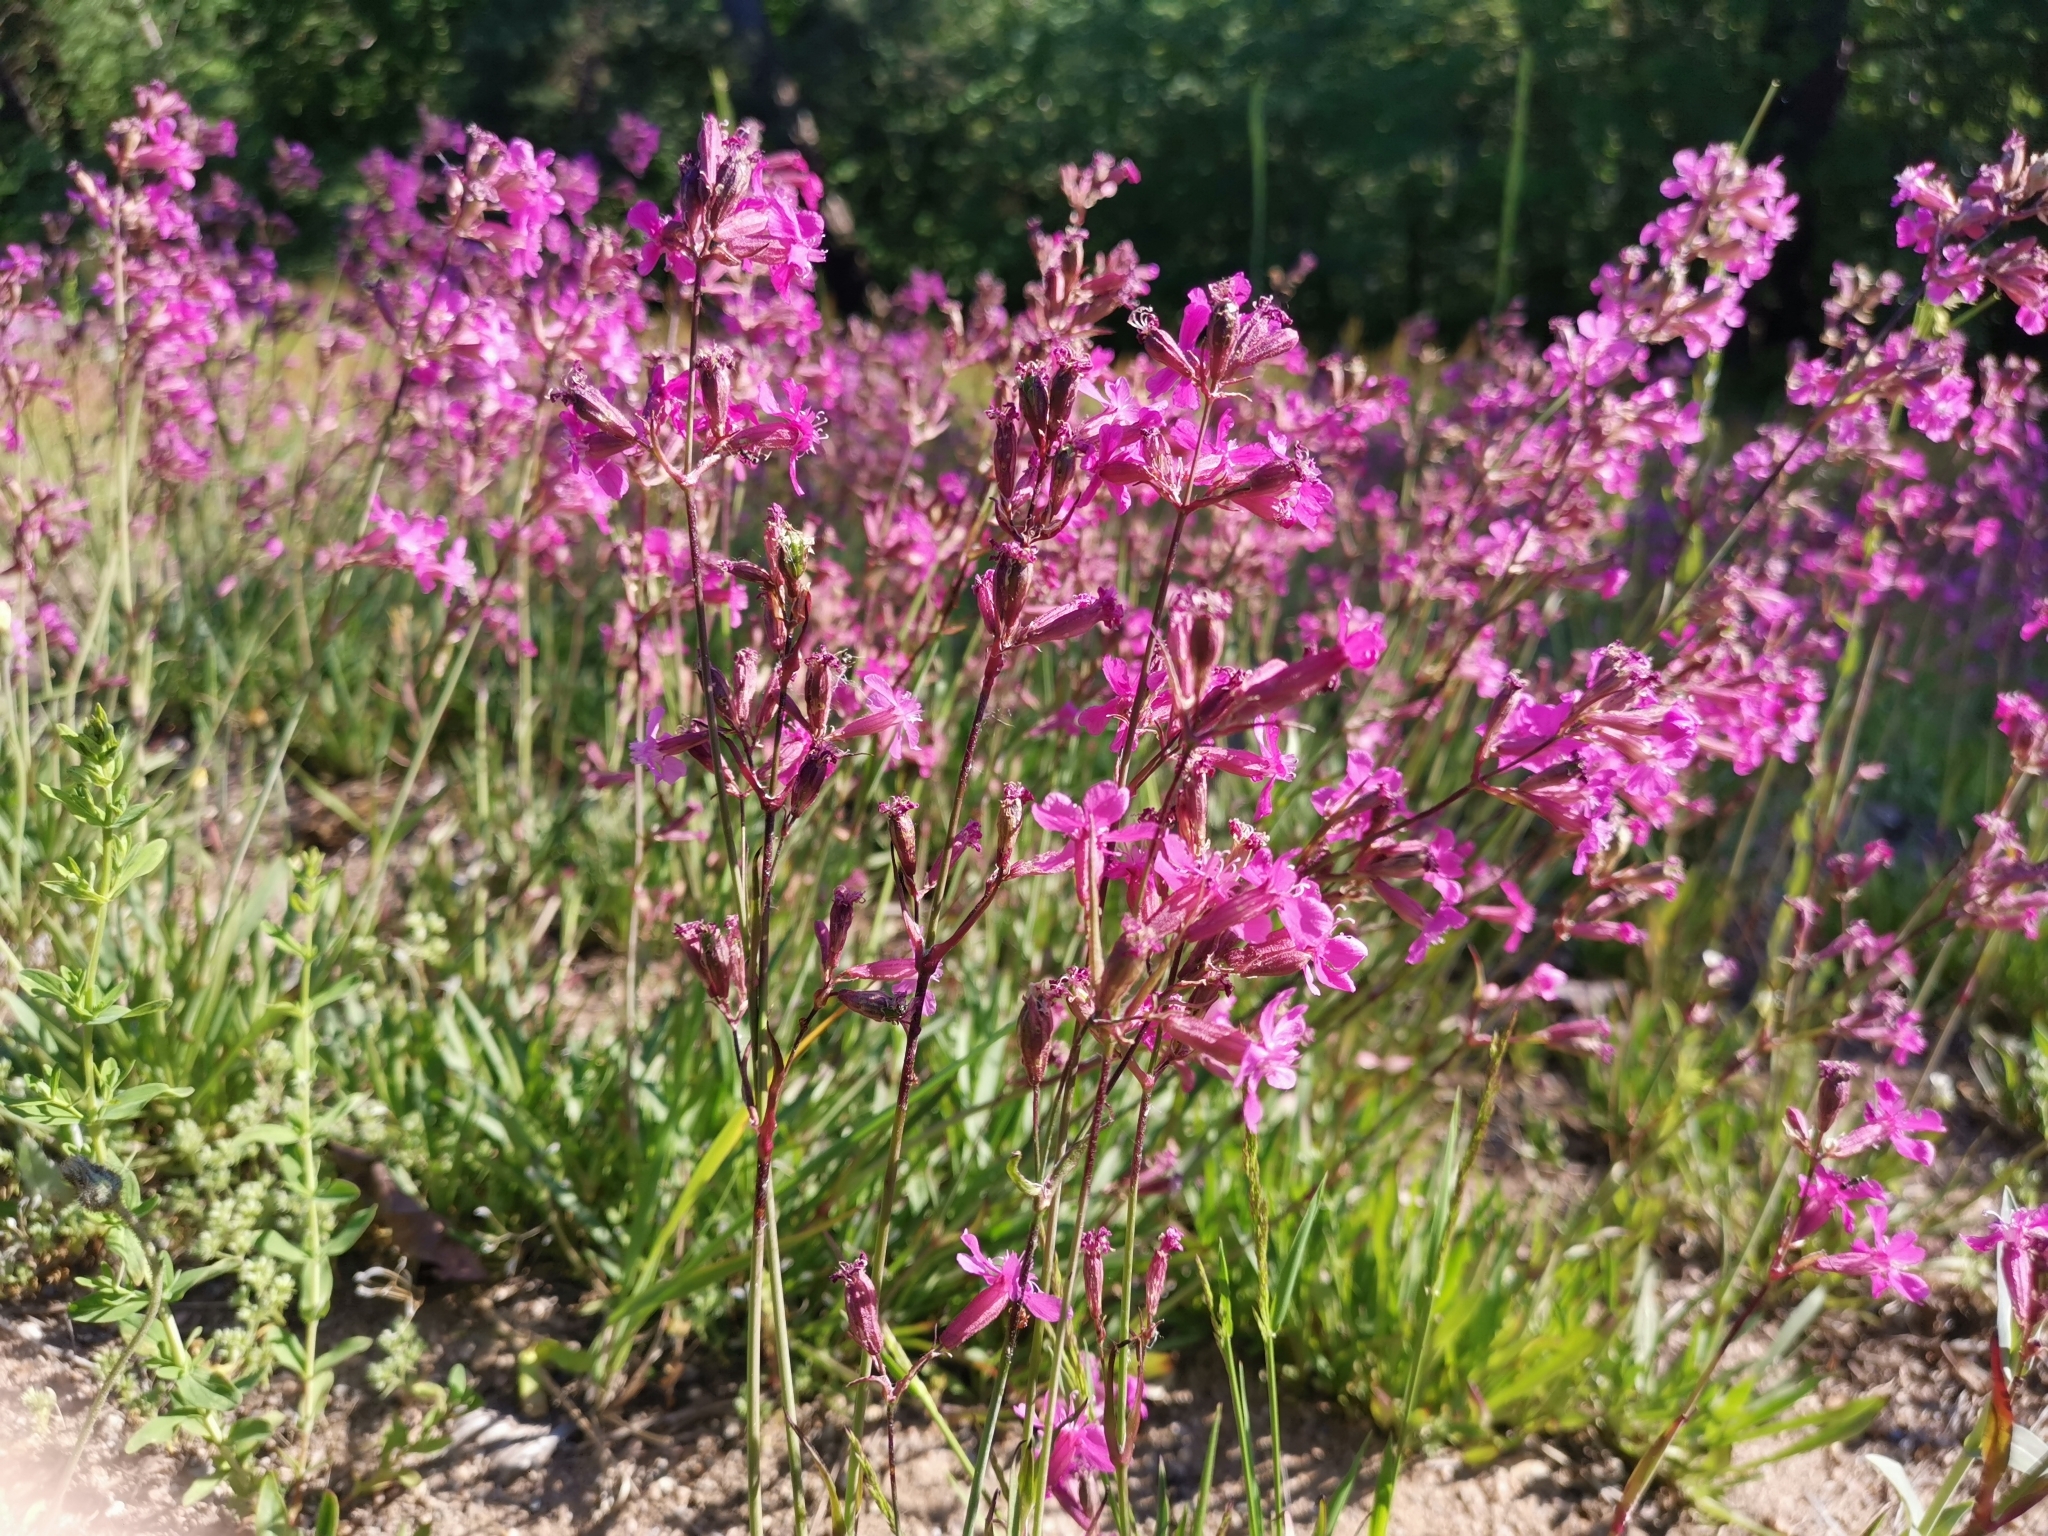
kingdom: Plantae
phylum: Tracheophyta
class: Magnoliopsida
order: Caryophyllales
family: Caryophyllaceae
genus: Viscaria
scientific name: Viscaria vulgaris
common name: Clammy campion
